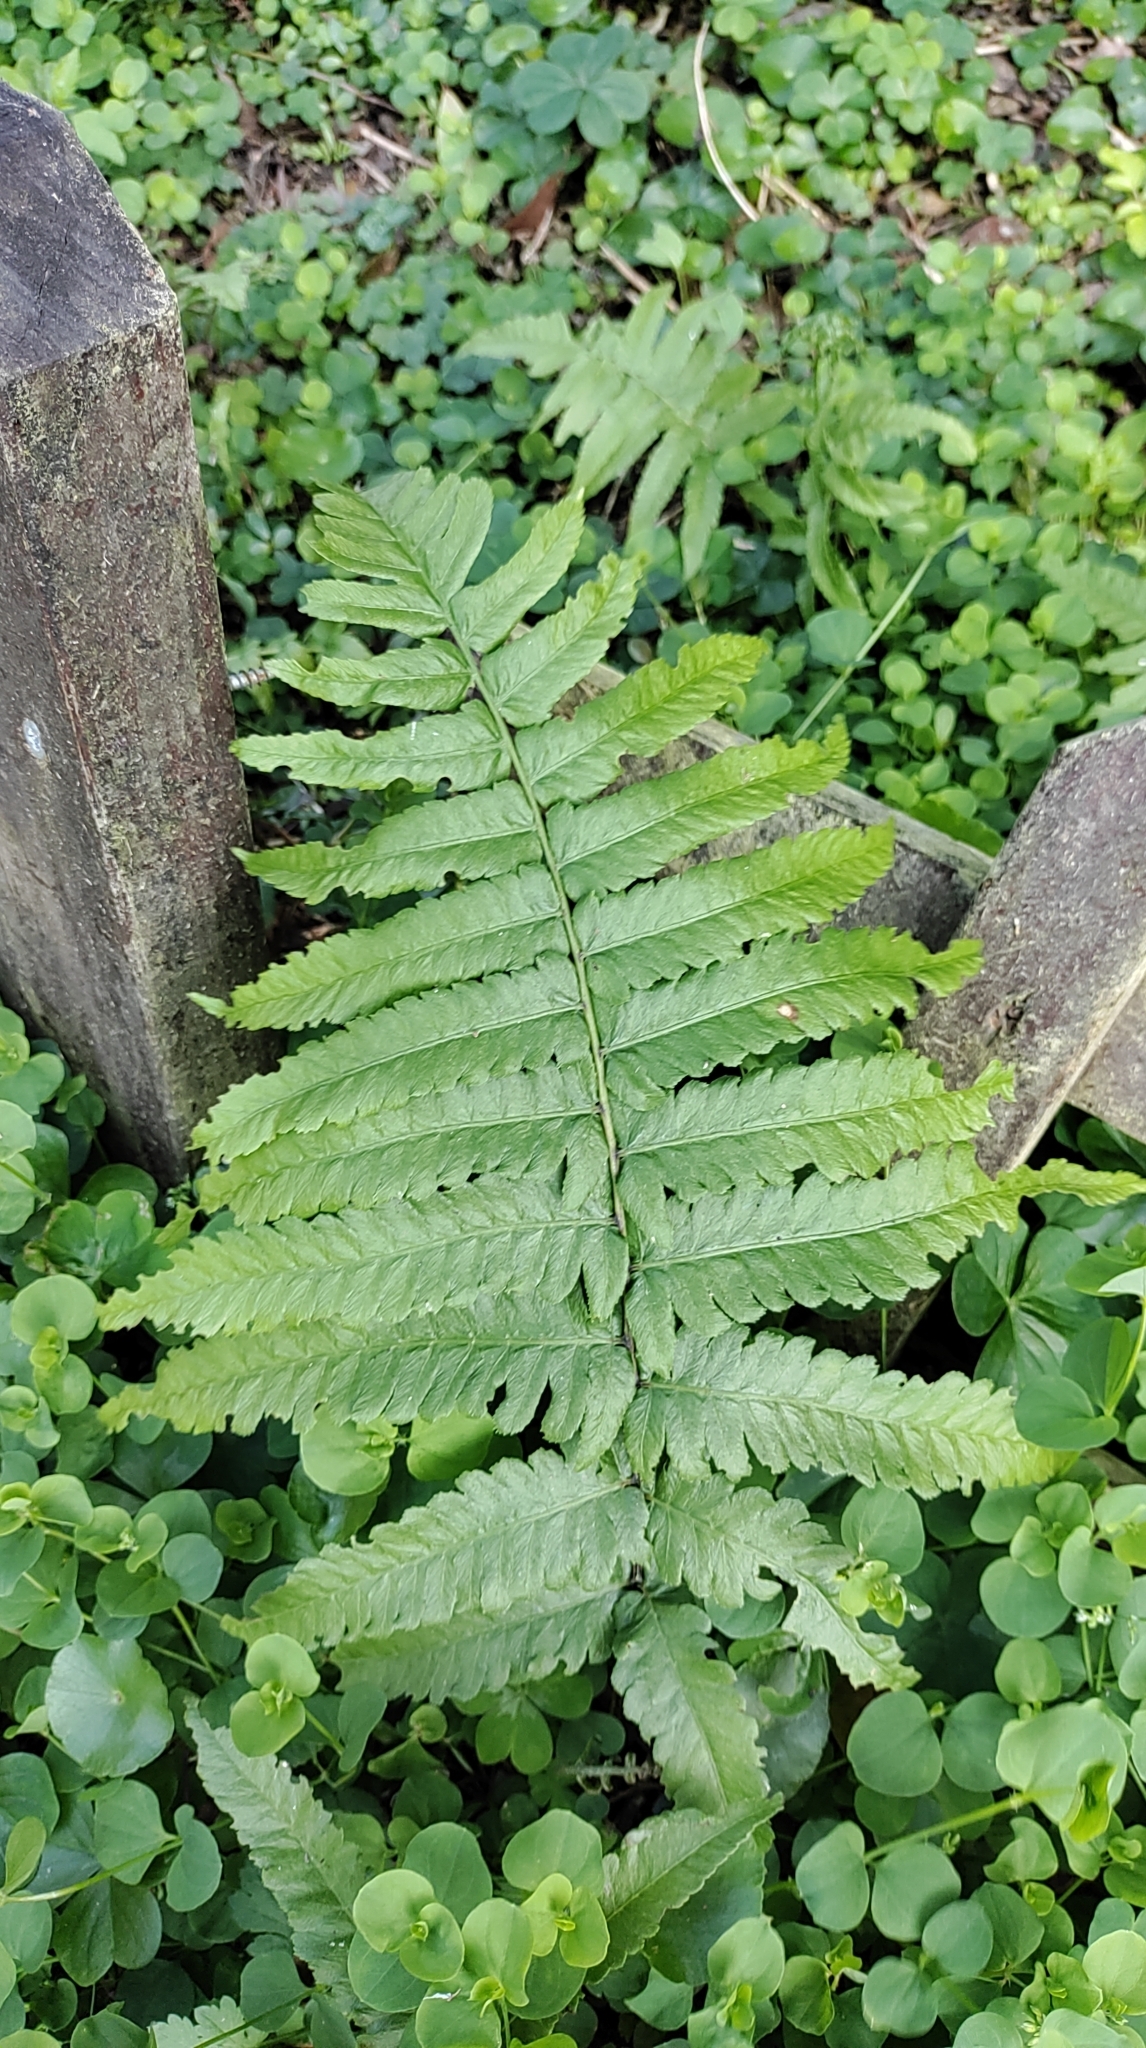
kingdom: Plantae
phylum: Tracheophyta
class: Polypodiopsida
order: Polypodiales
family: Athyriaceae
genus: Diplazium
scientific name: Diplazium esculentum
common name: Vegetable fern
